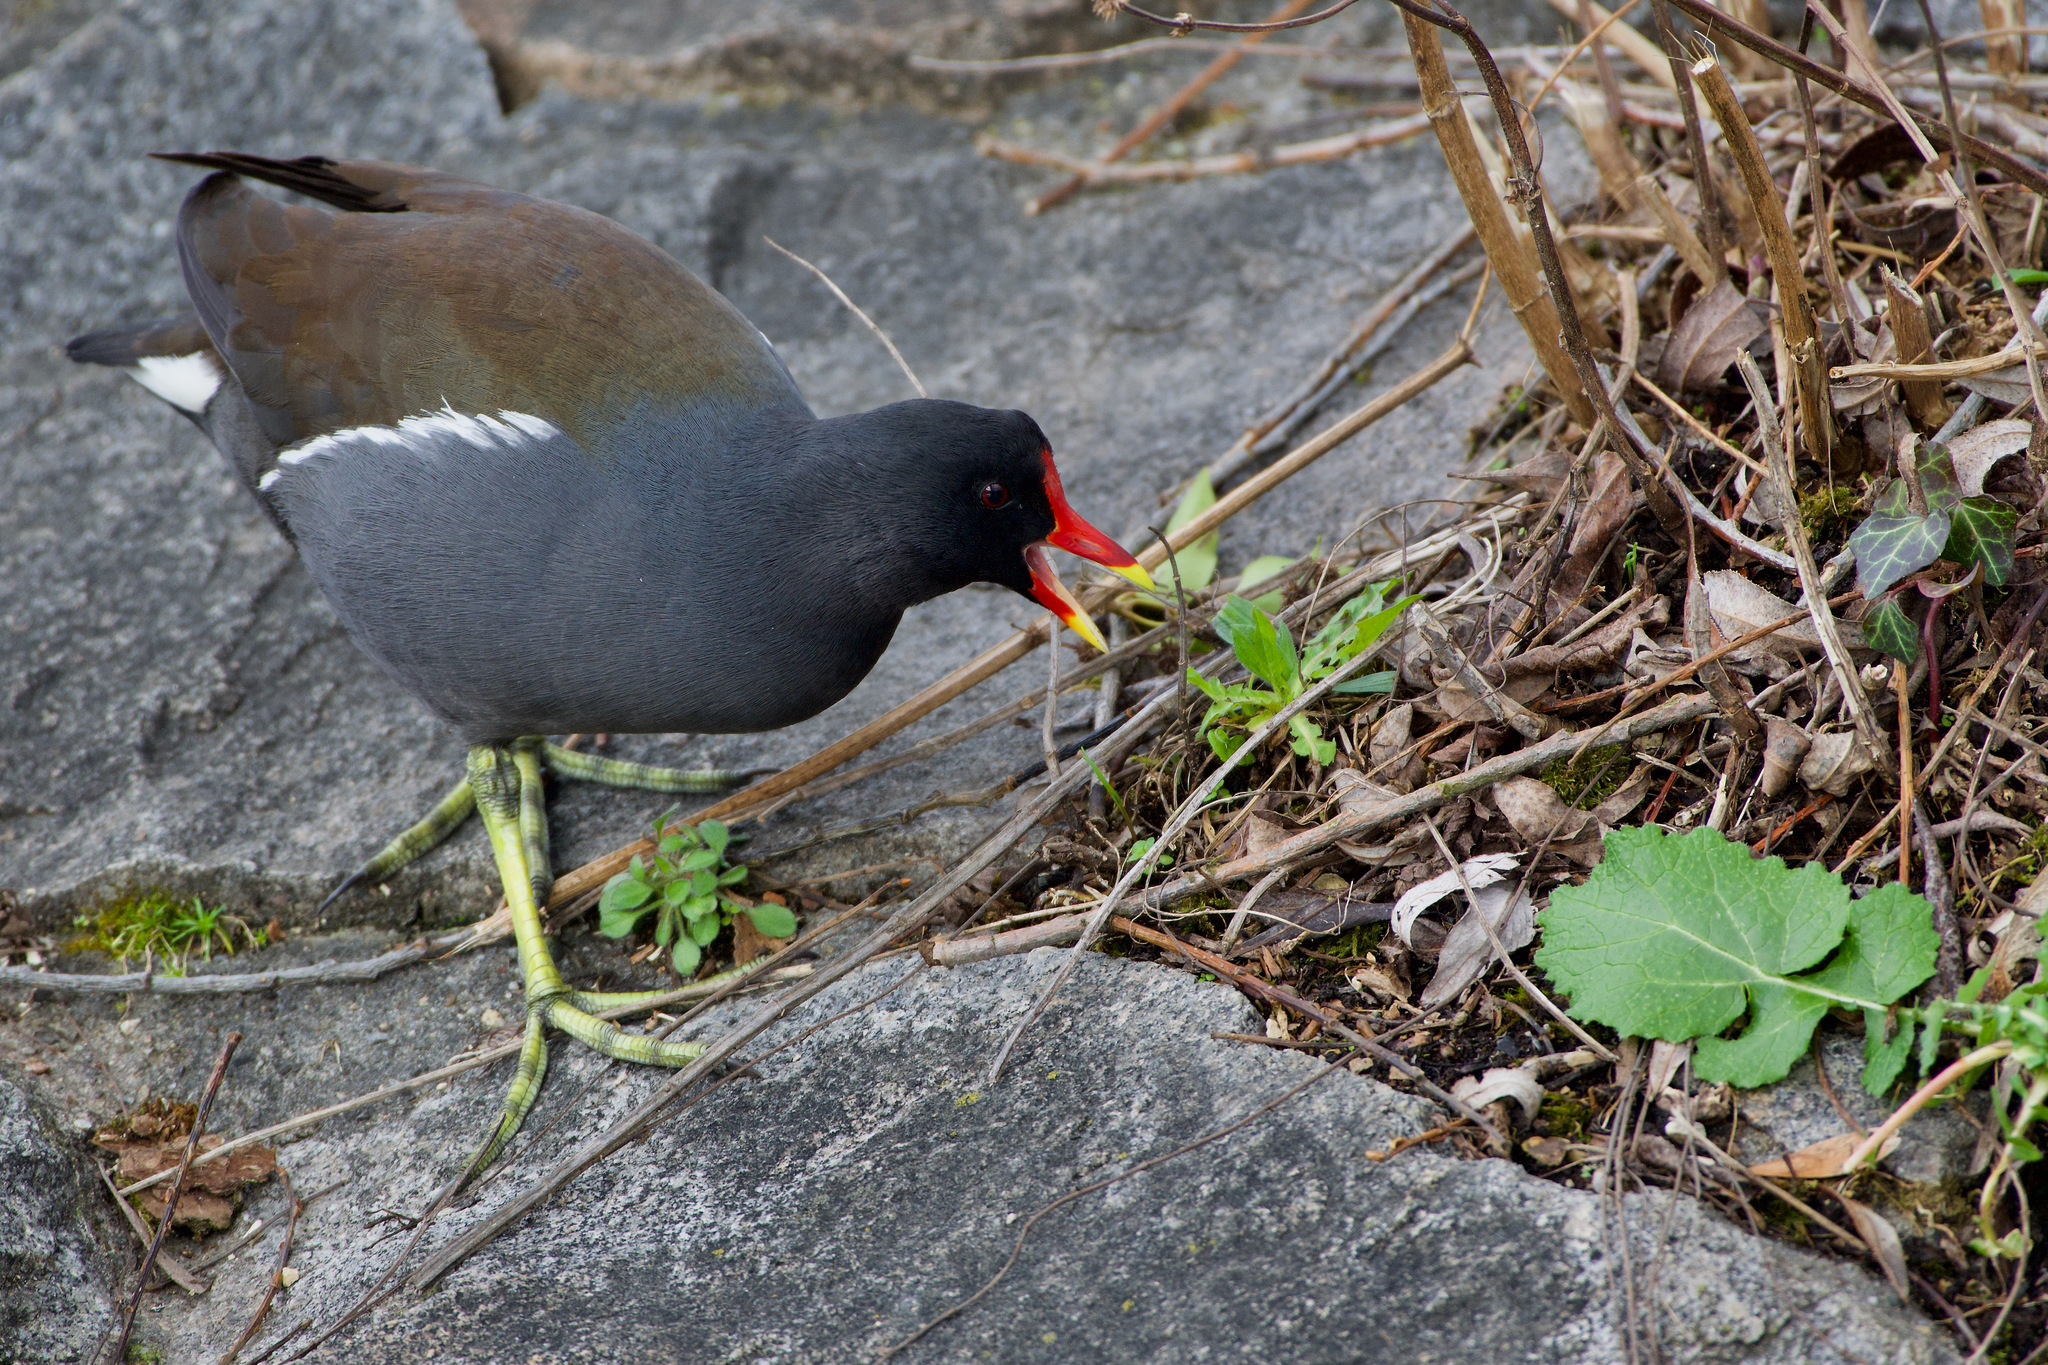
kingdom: Animalia
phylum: Chordata
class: Aves
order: Gruiformes
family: Rallidae
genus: Gallinula
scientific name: Gallinula chloropus
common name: Common moorhen
